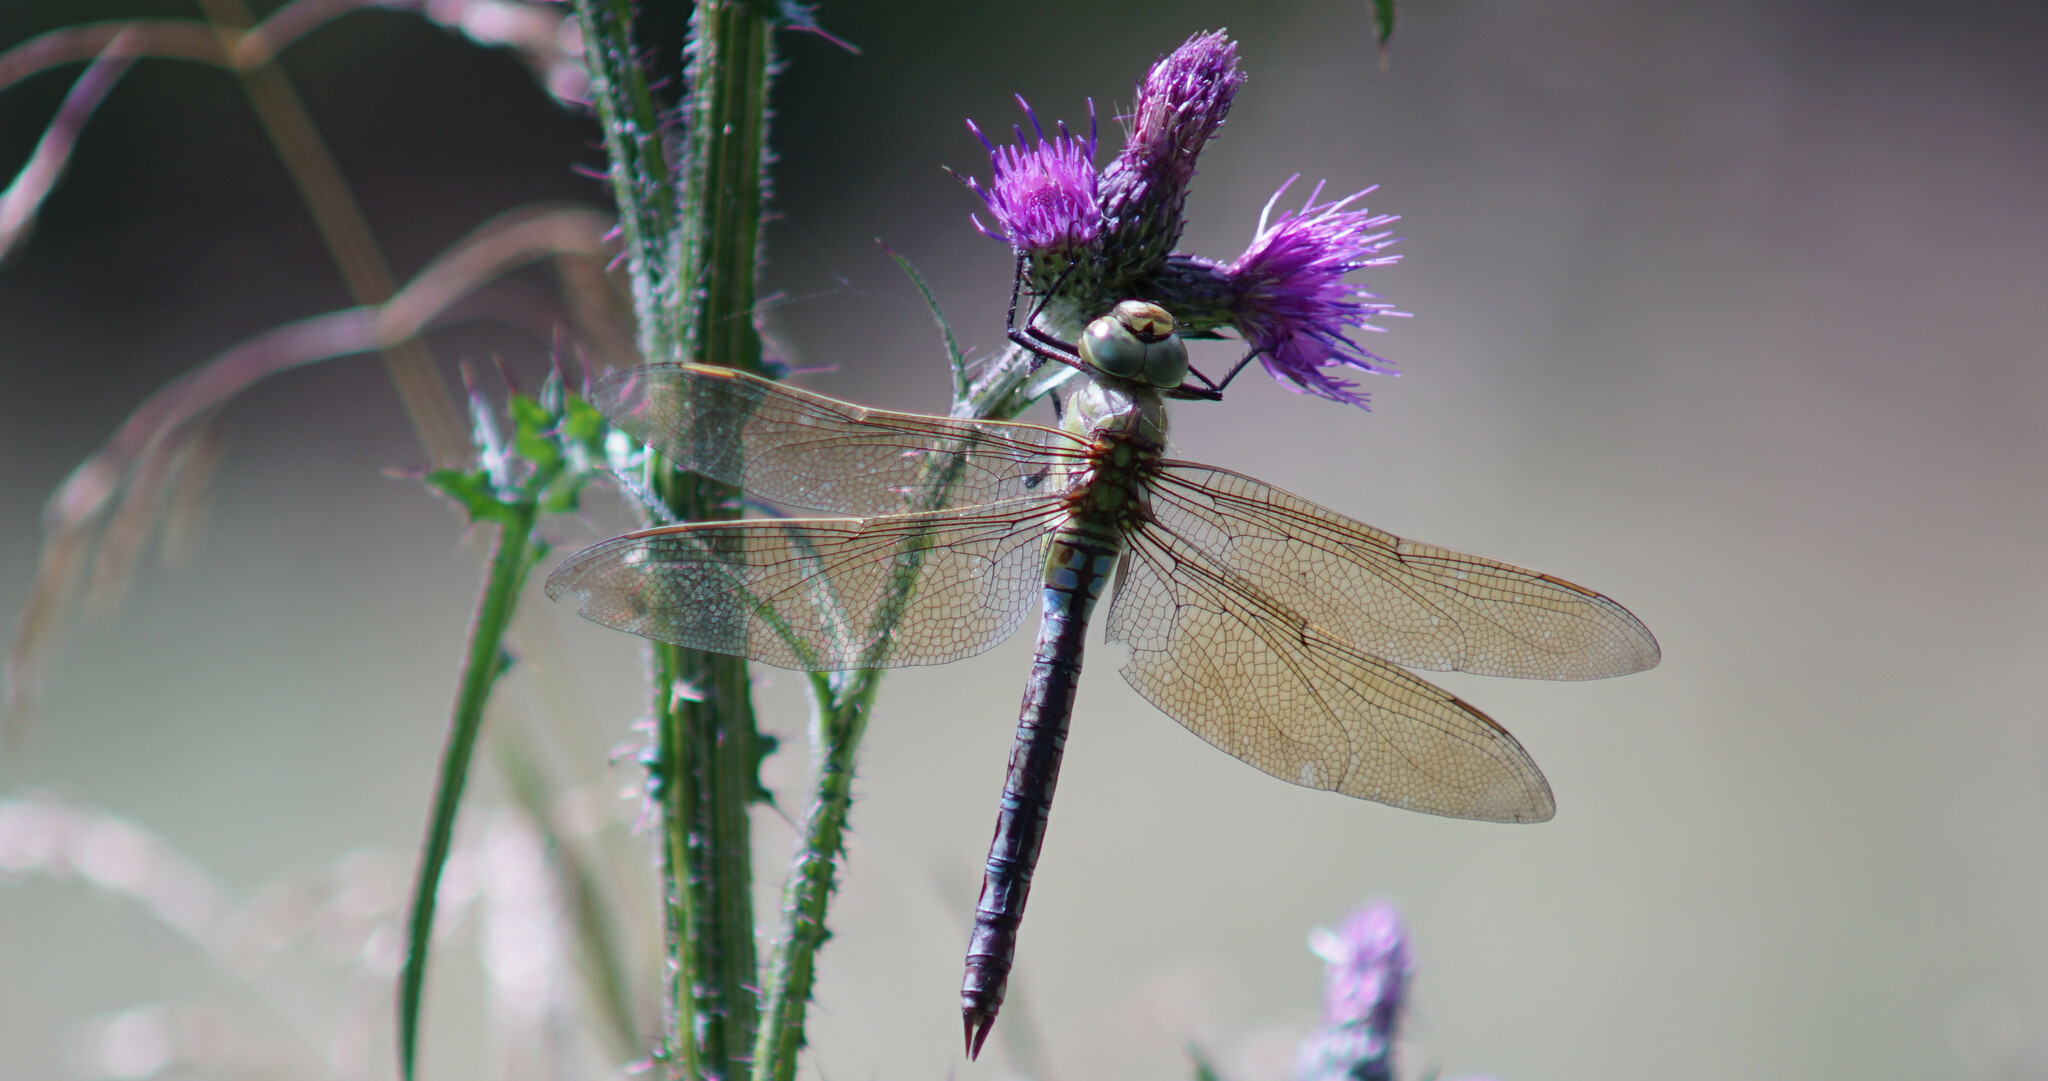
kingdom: Animalia
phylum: Arthropoda
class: Insecta
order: Odonata
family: Aeshnidae
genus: Anax
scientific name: Anax imperator
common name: Emperor dragonfly
